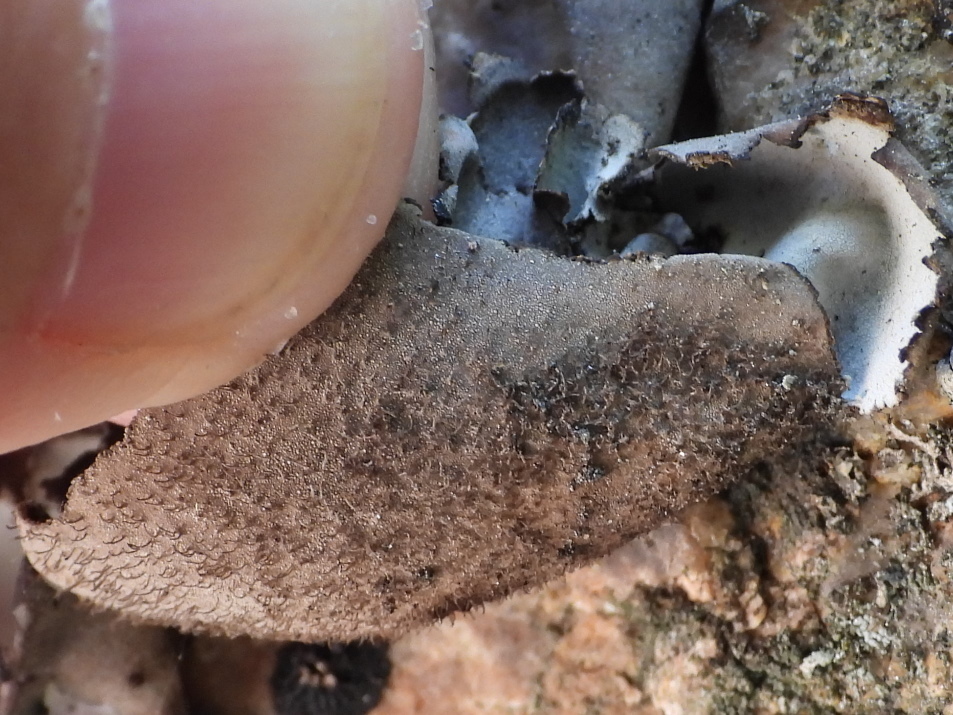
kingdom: Fungi
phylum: Ascomycota
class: Lecanoromycetes
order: Umbilicariales
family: Umbilicariaceae
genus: Umbilicaria
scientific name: Umbilicaria hirsuta
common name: Granulating rocktripe lichen
